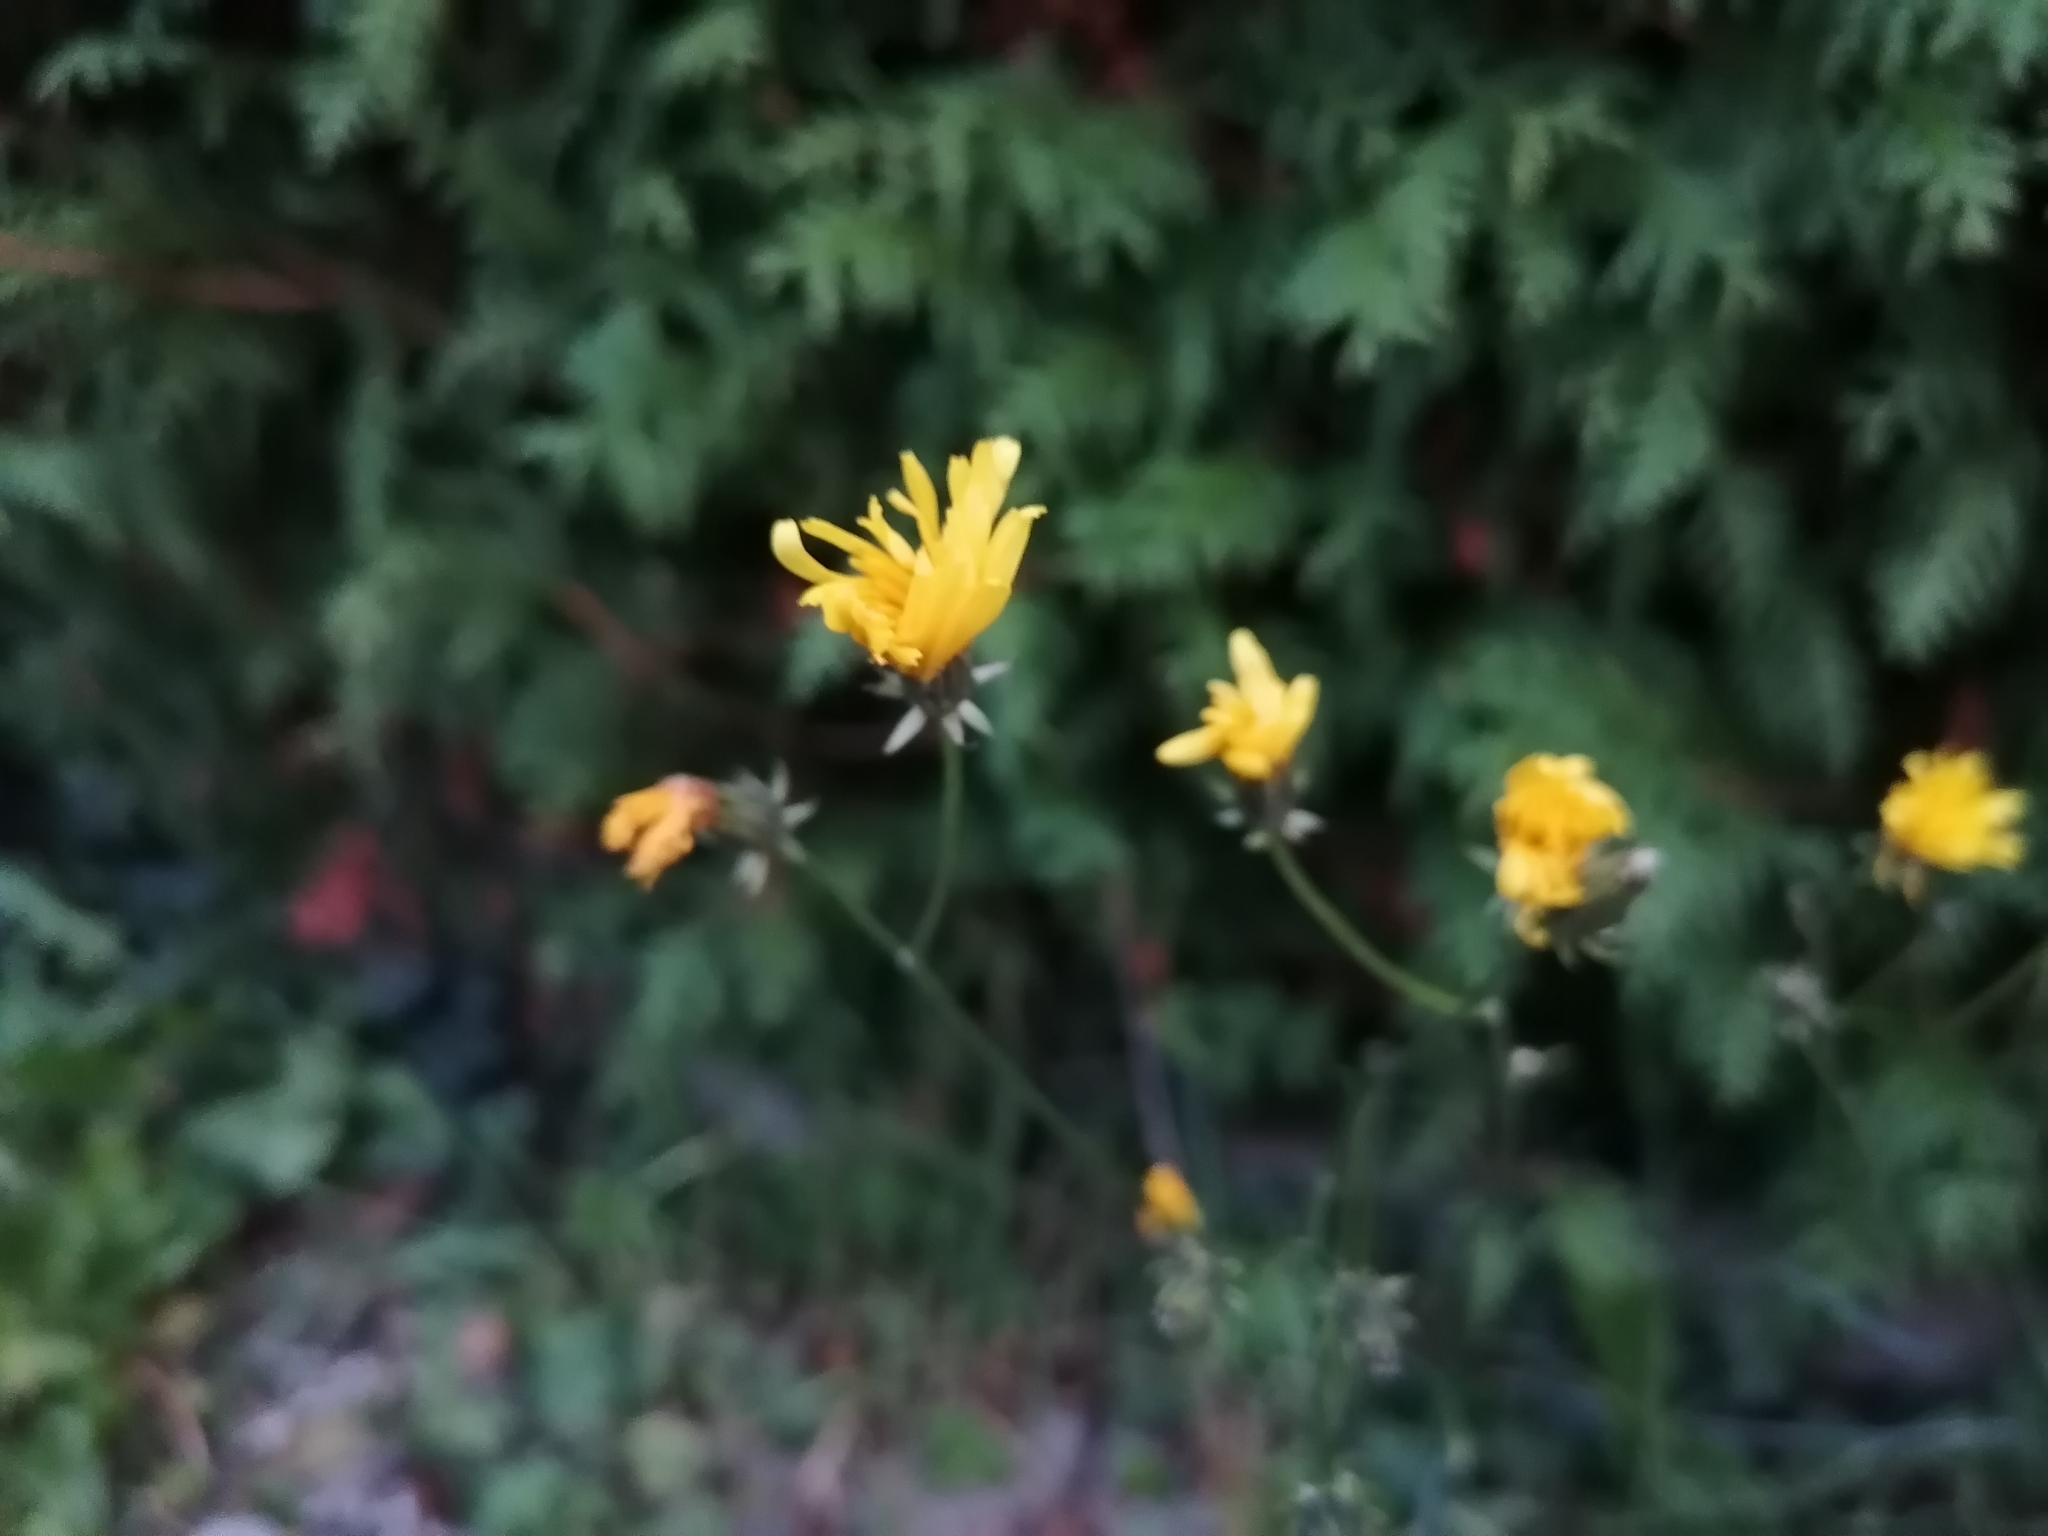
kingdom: Plantae
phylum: Tracheophyta
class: Magnoliopsida
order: Asterales
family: Asteraceae
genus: Crepis
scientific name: Crepis biennis
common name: Rough hawk's-beard
